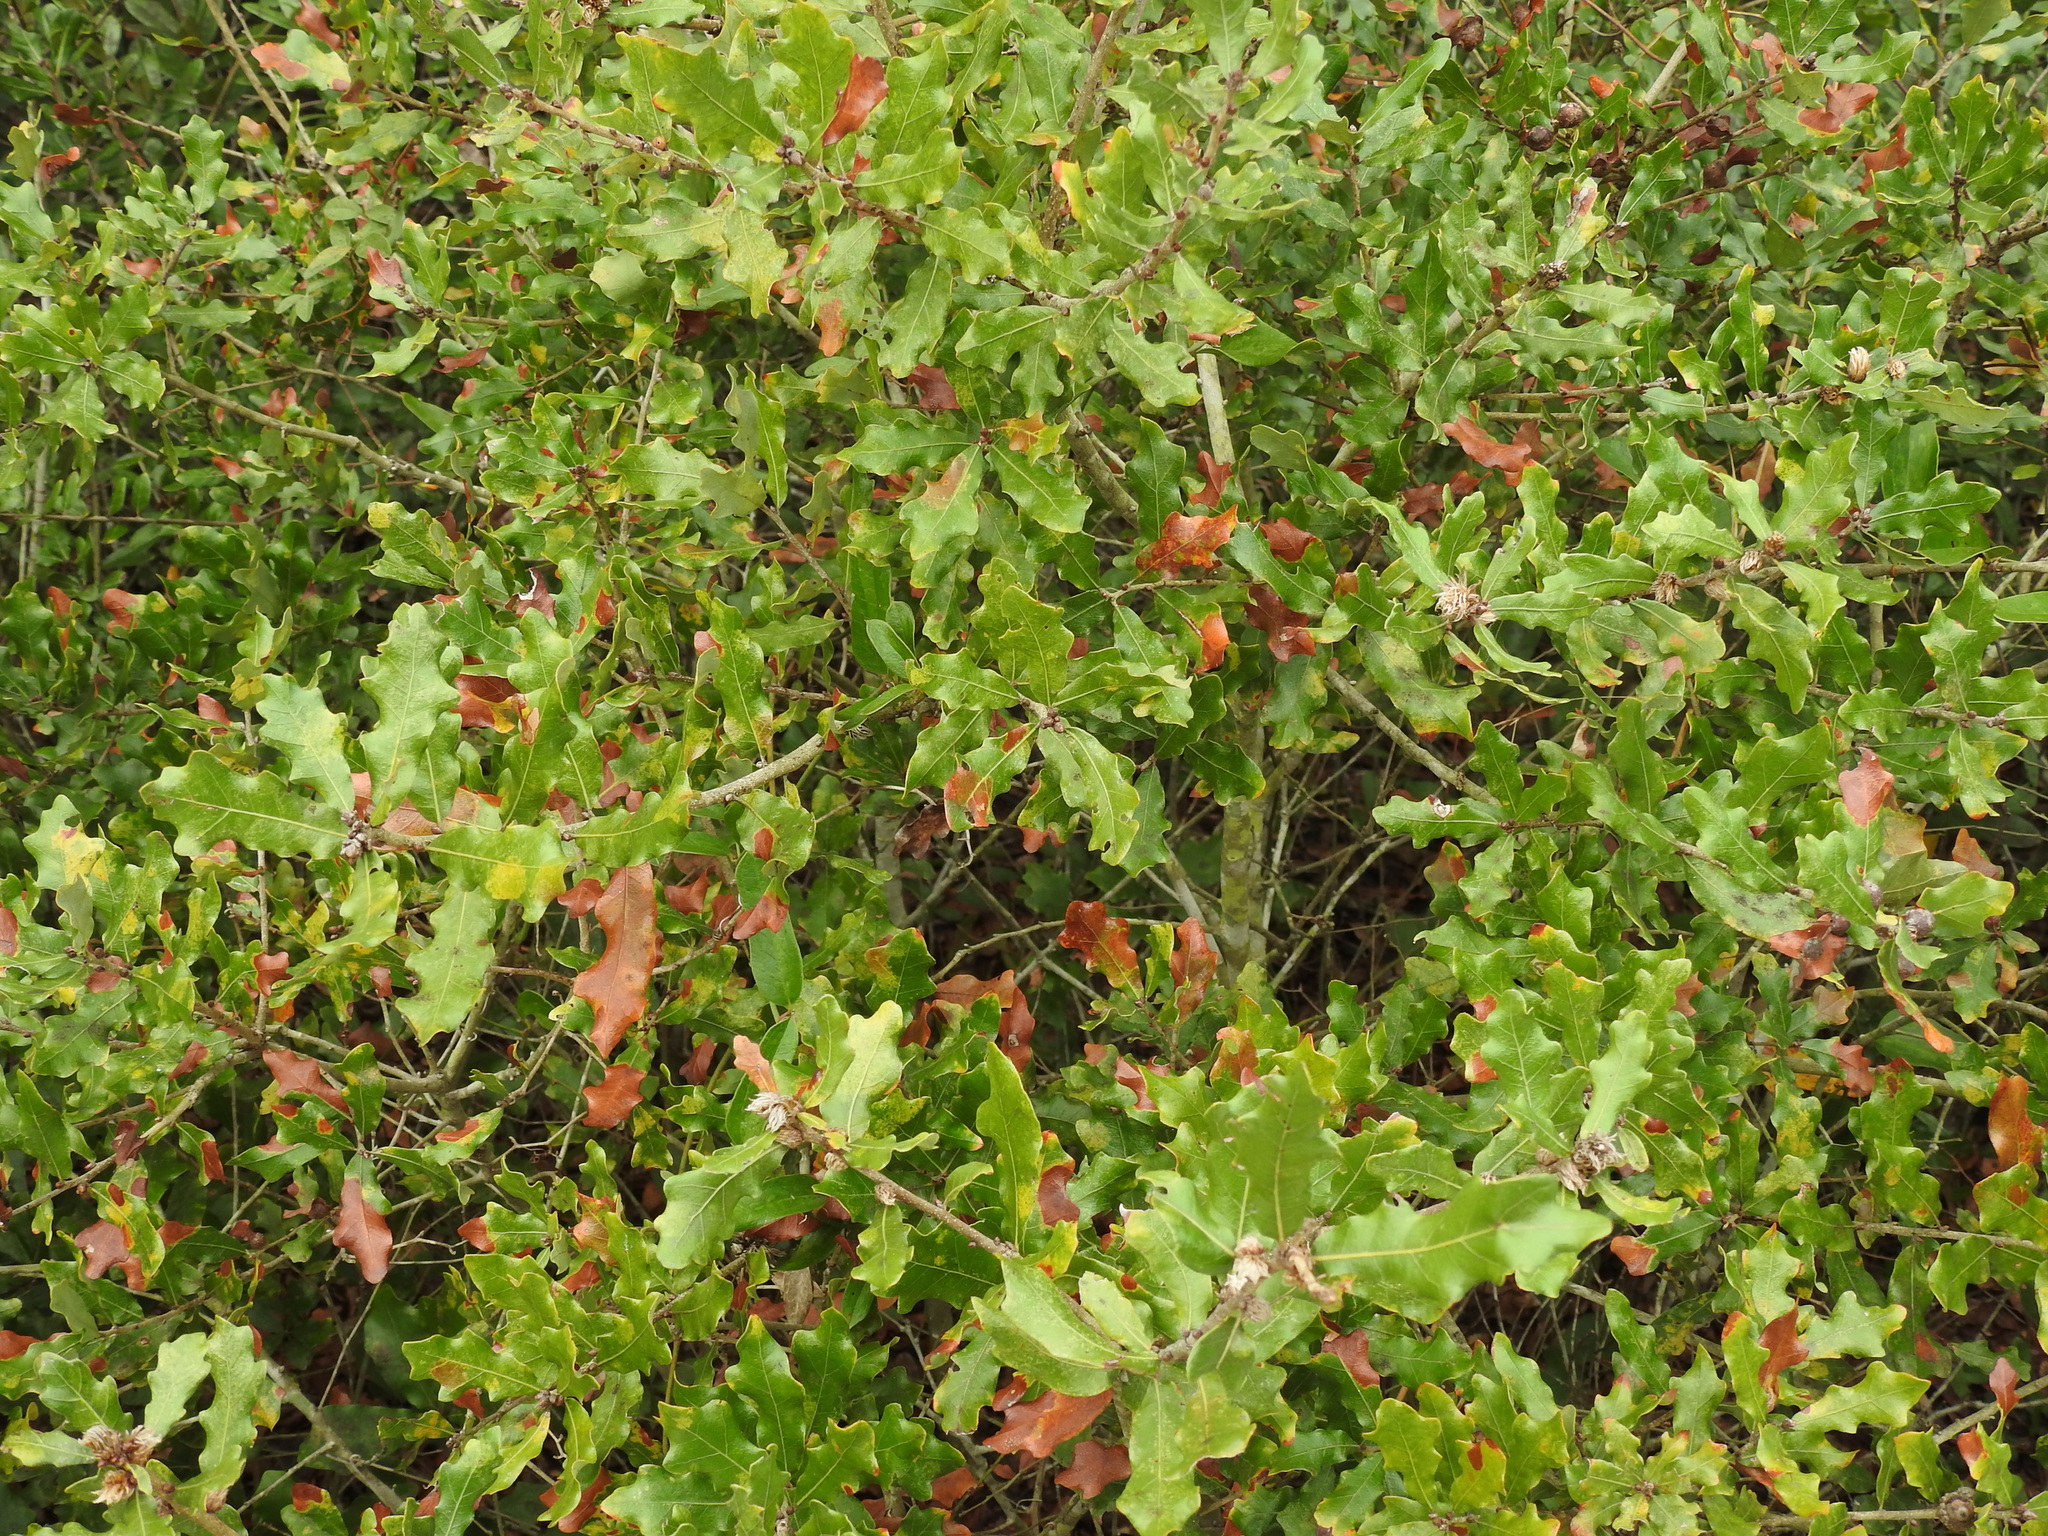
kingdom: Plantae
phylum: Tracheophyta
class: Magnoliopsida
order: Fagales
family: Fagaceae
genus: Quercus
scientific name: Quercus chapmanii
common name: Chapman oak
